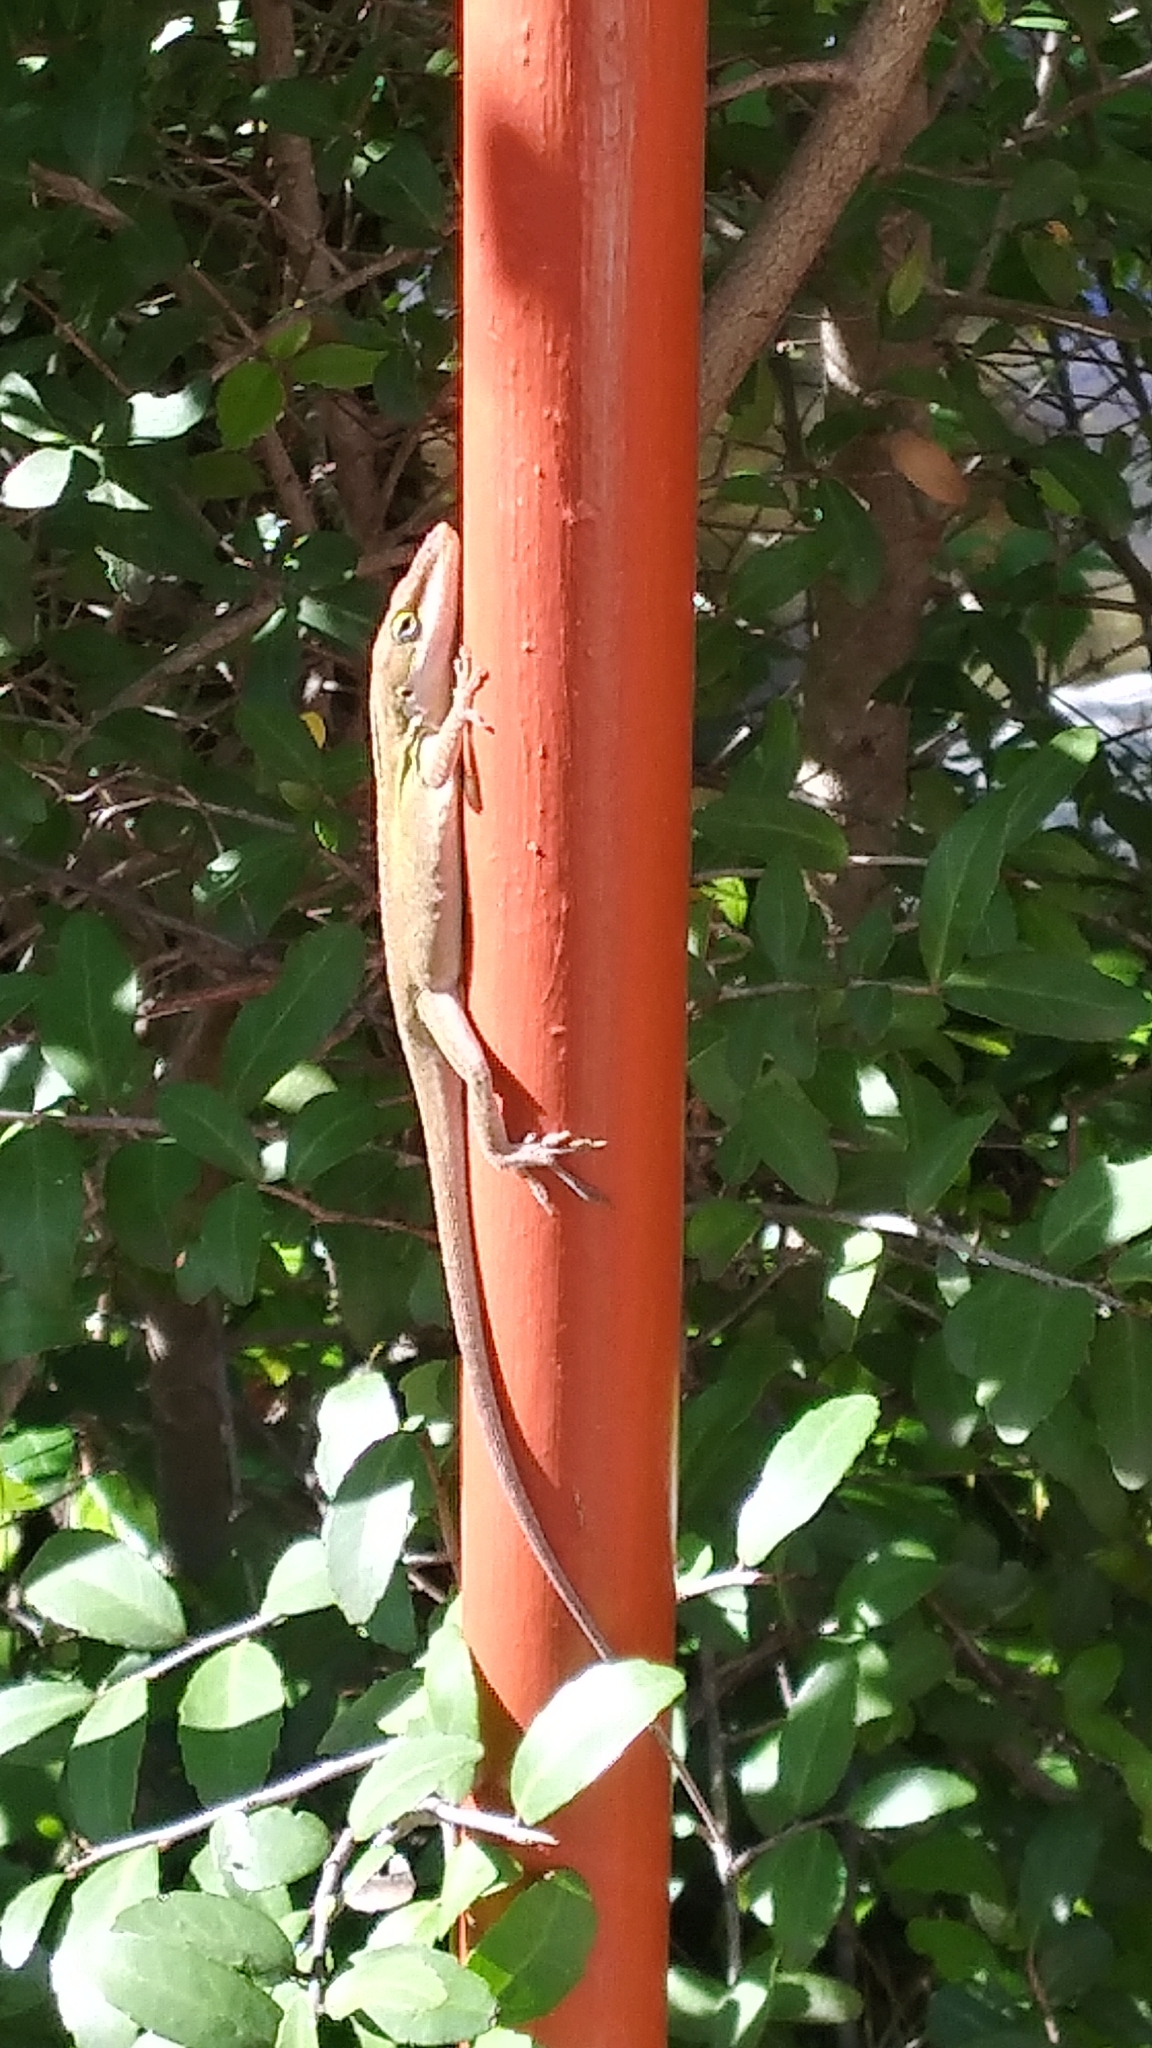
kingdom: Animalia
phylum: Chordata
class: Squamata
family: Dactyloidae
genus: Anolis
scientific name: Anolis carolinensis
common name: Green anole
